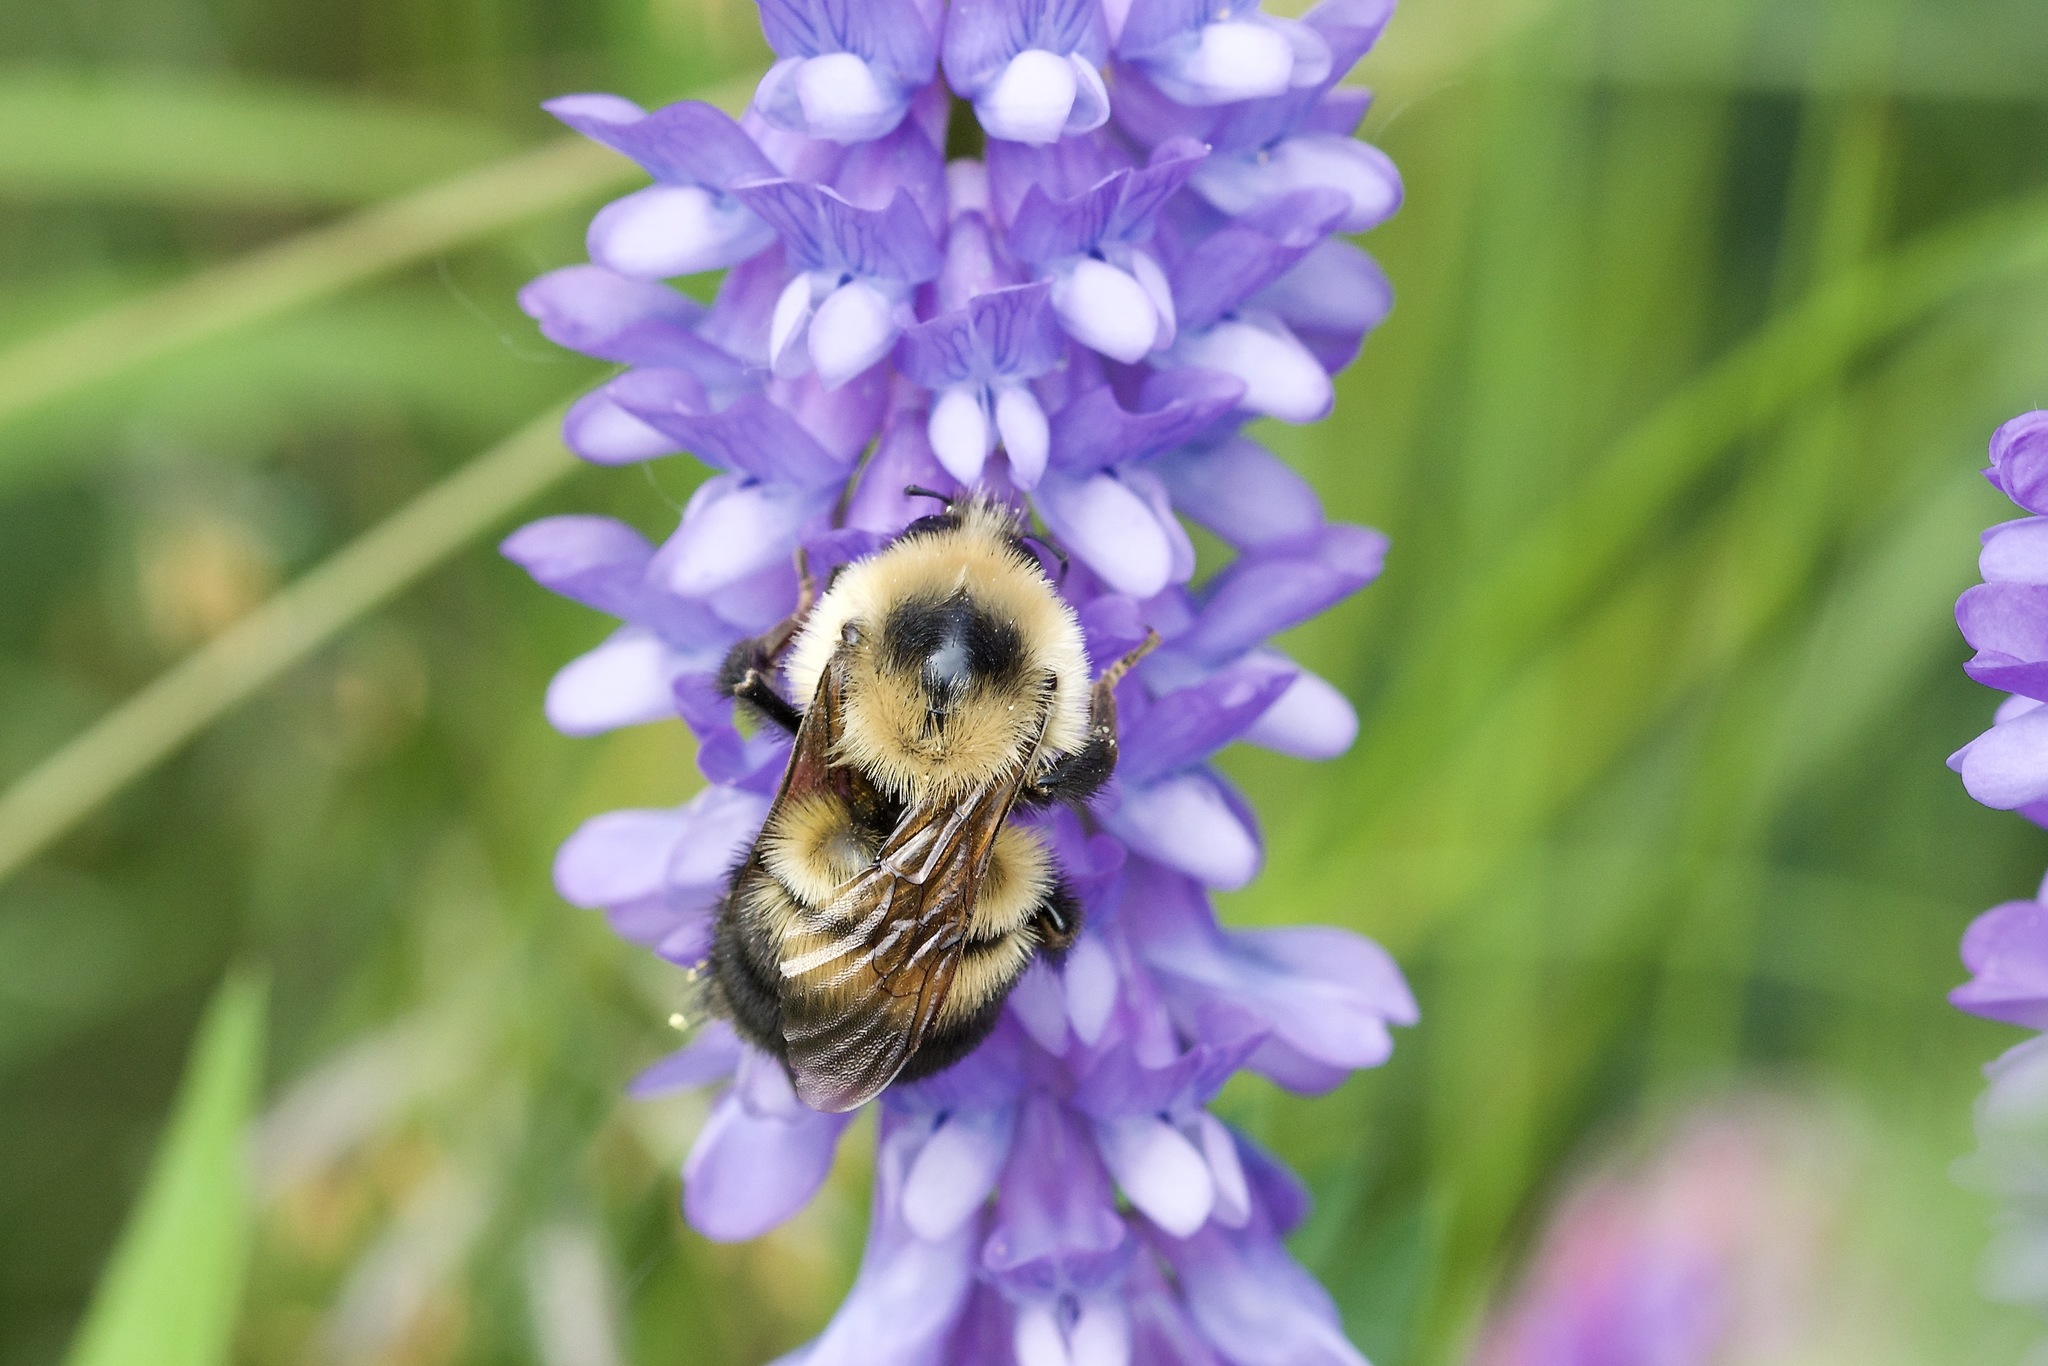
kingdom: Animalia
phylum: Arthropoda
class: Insecta
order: Hymenoptera
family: Apidae
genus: Bombus
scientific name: Bombus rufocinctus
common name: Red-belted bumble bee
